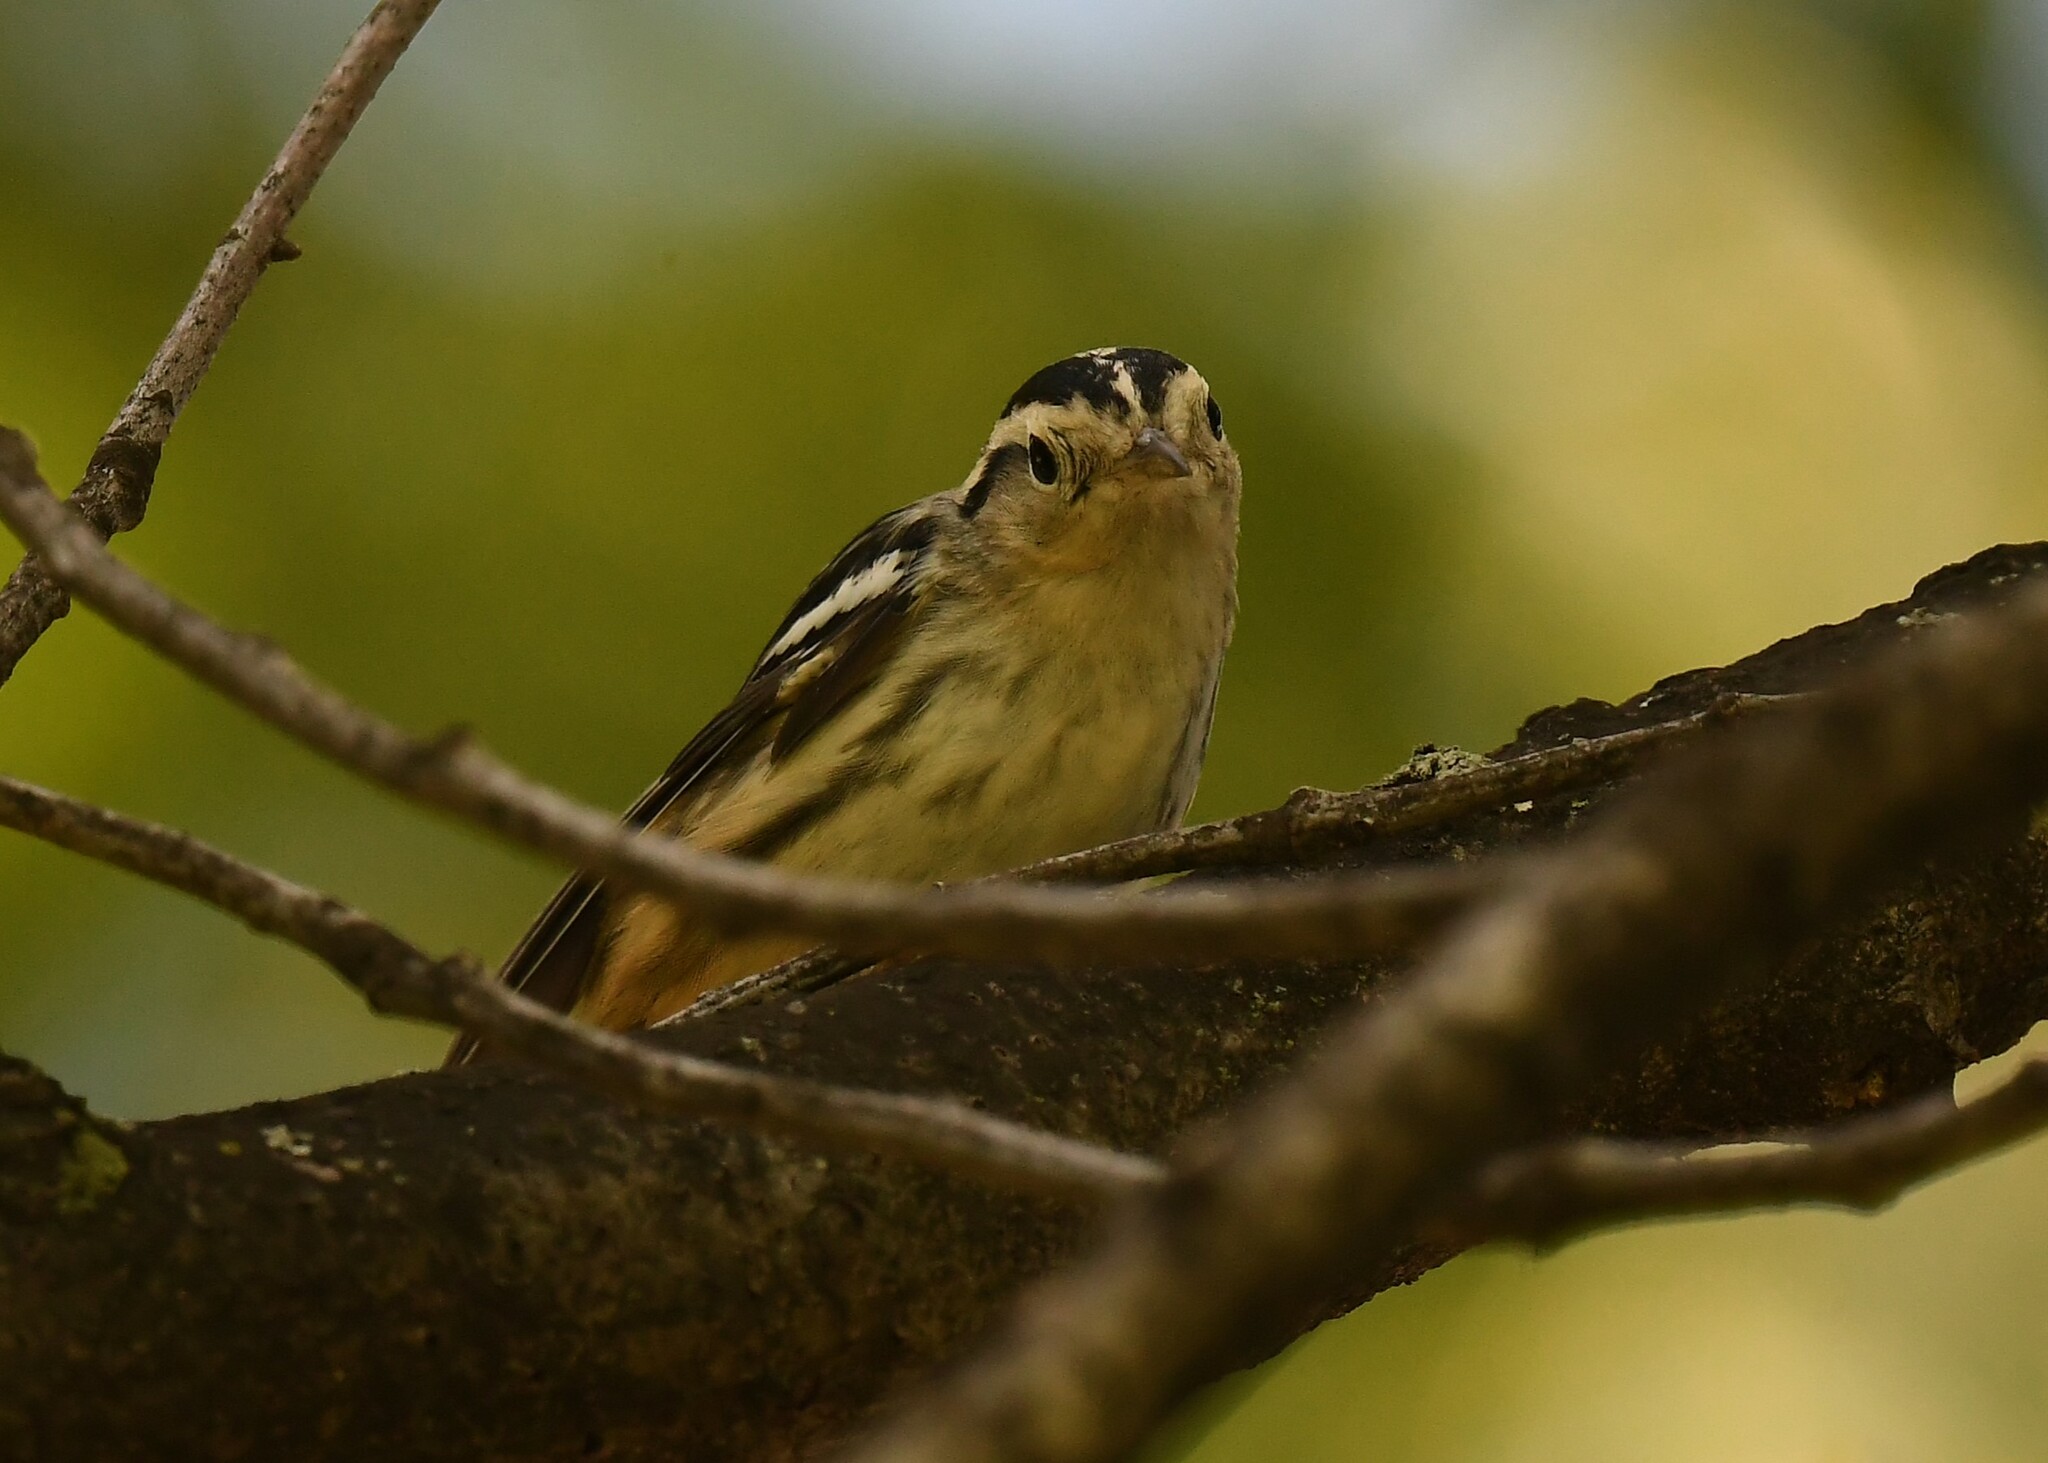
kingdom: Animalia
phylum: Chordata
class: Aves
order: Passeriformes
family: Parulidae
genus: Mniotilta
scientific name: Mniotilta varia
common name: Black-and-white warbler
